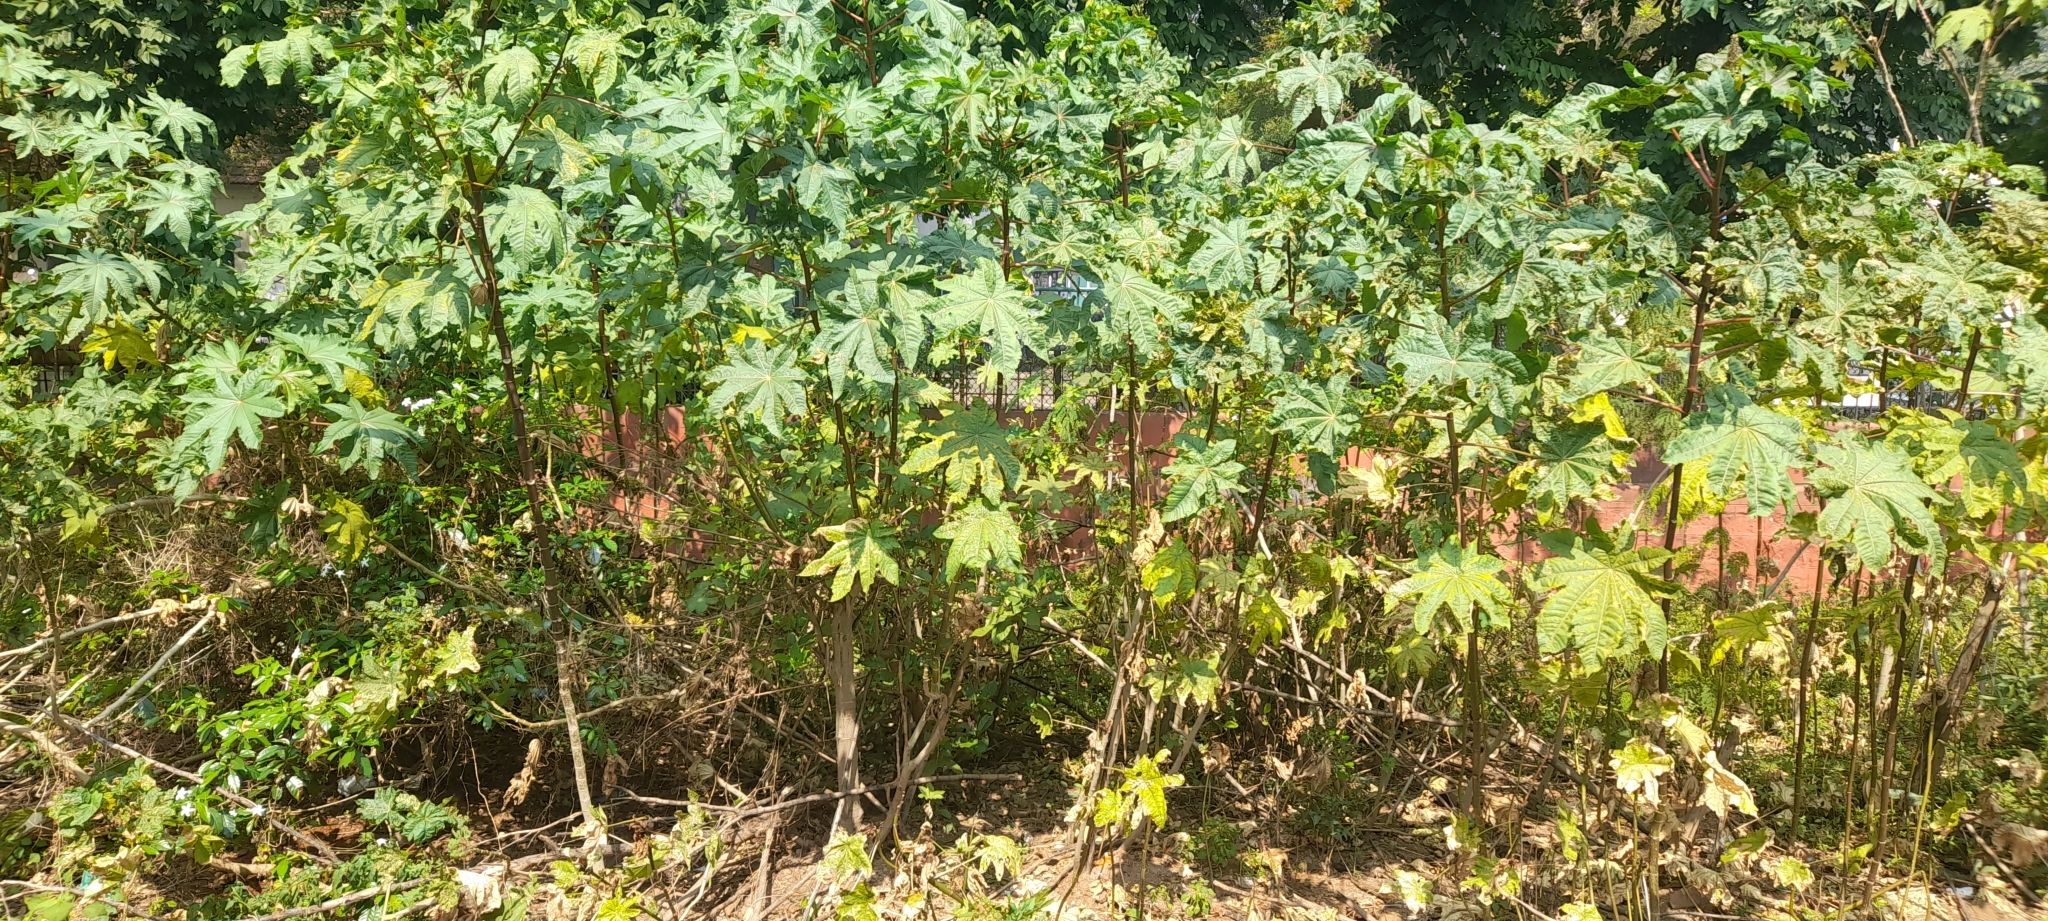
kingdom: Plantae
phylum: Tracheophyta
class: Magnoliopsida
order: Malpighiales
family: Euphorbiaceae
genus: Ricinus
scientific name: Ricinus communis
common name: Castor-oil-plant
